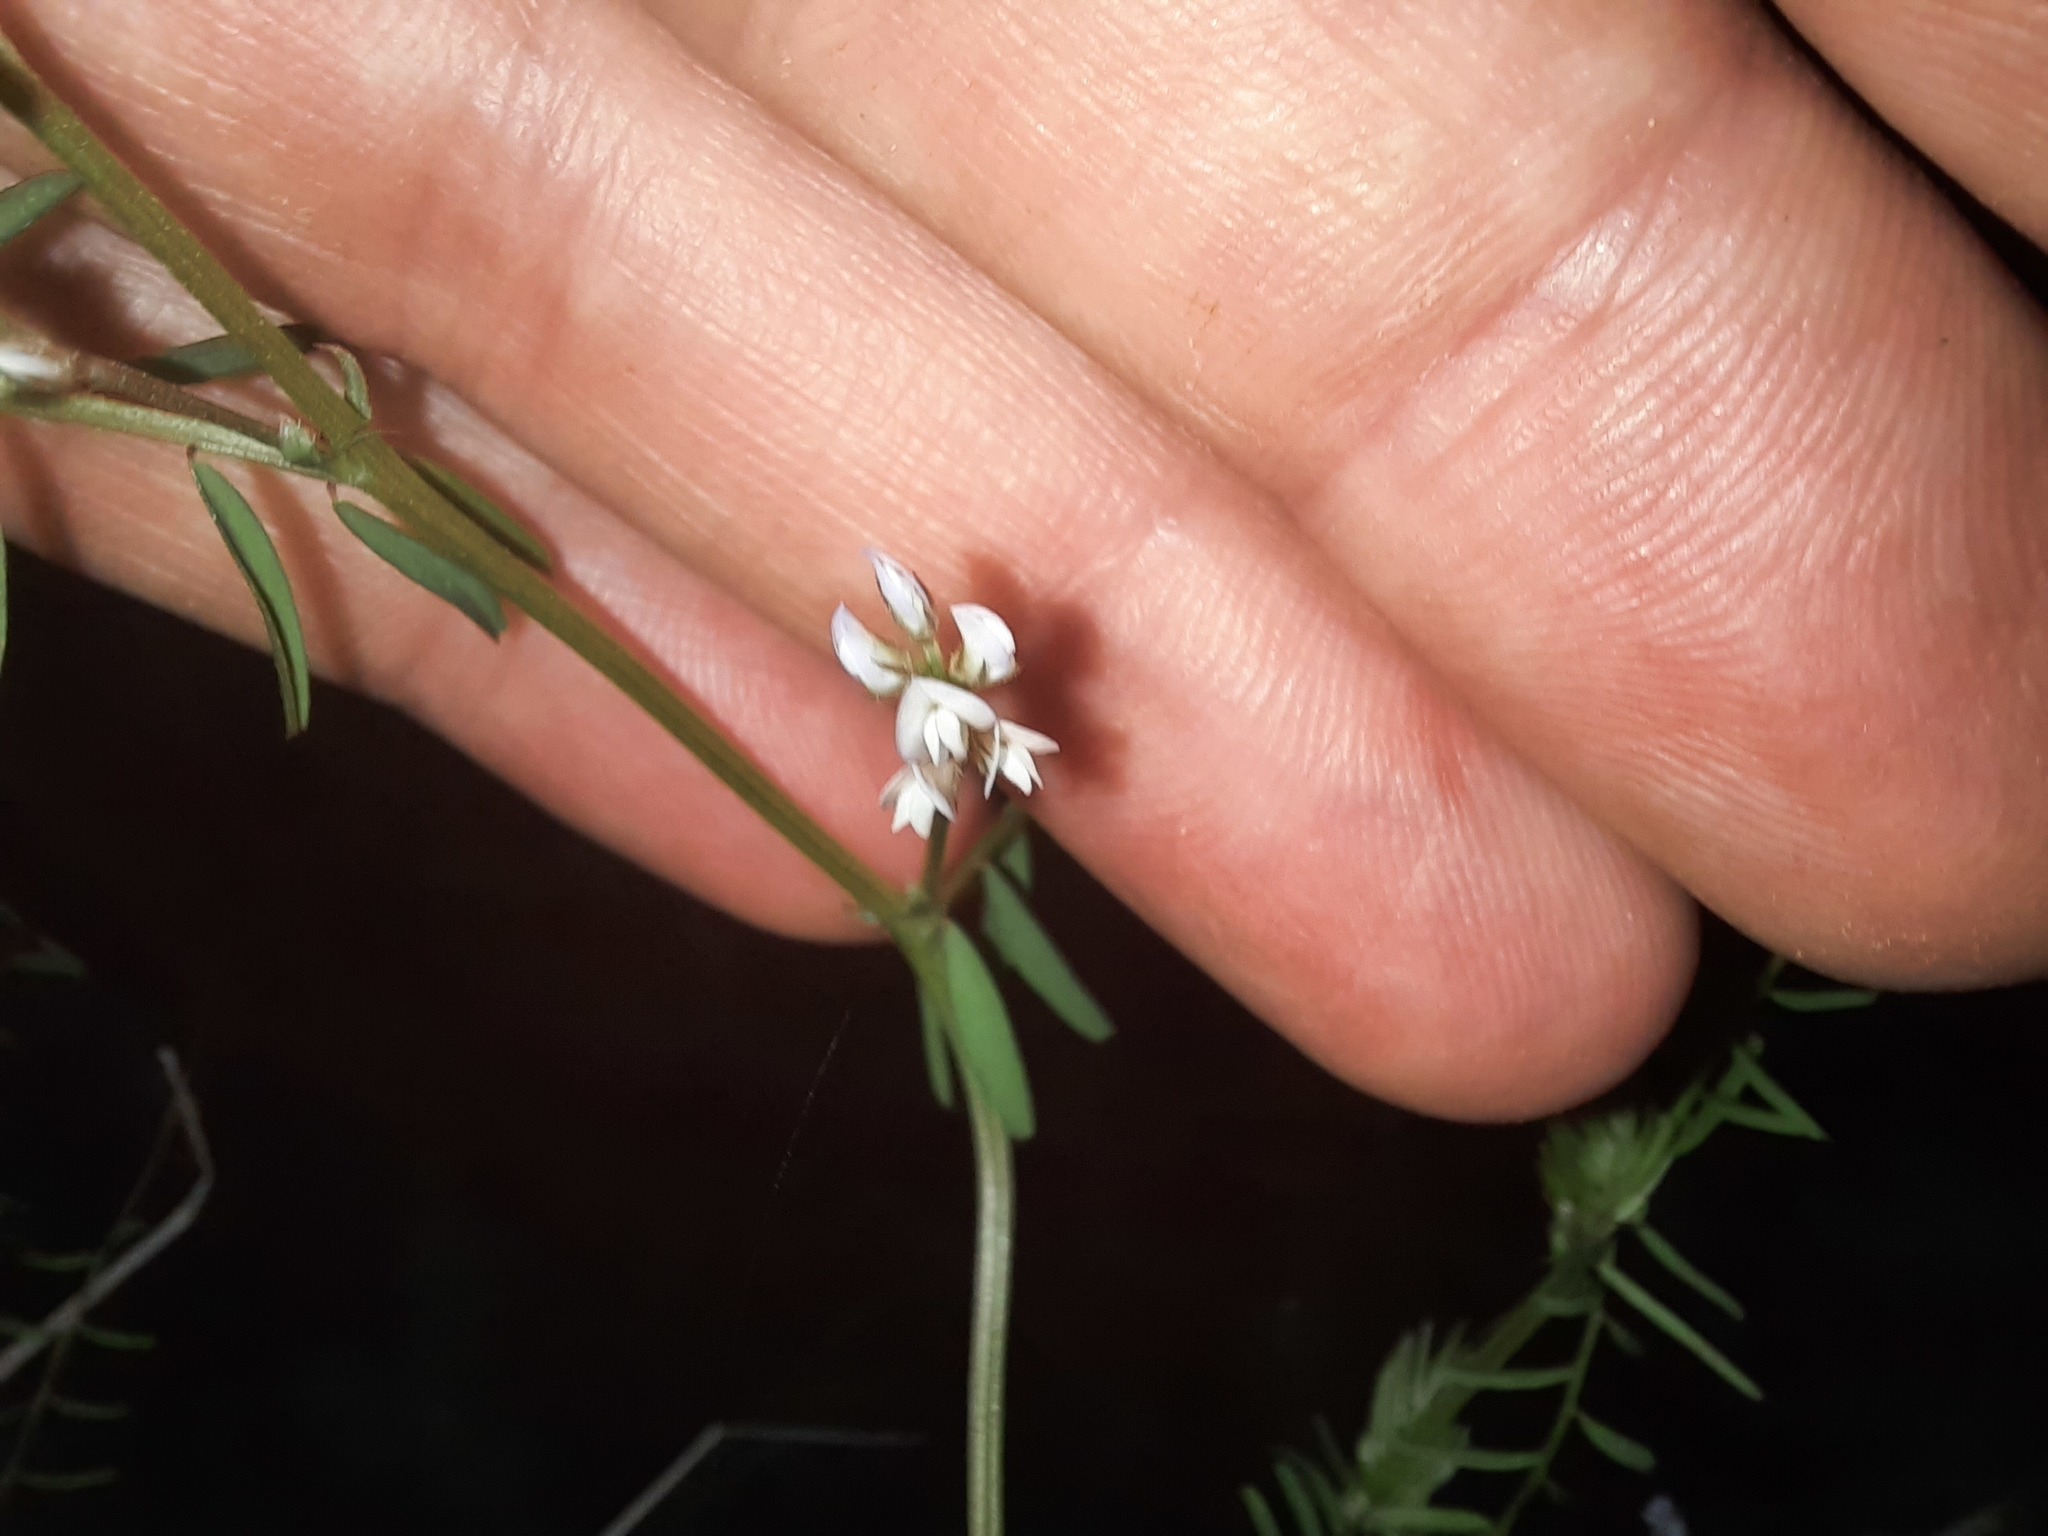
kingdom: Plantae
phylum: Tracheophyta
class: Magnoliopsida
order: Fabales
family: Fabaceae
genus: Vicia
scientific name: Vicia hirsuta
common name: Tiny vetch
